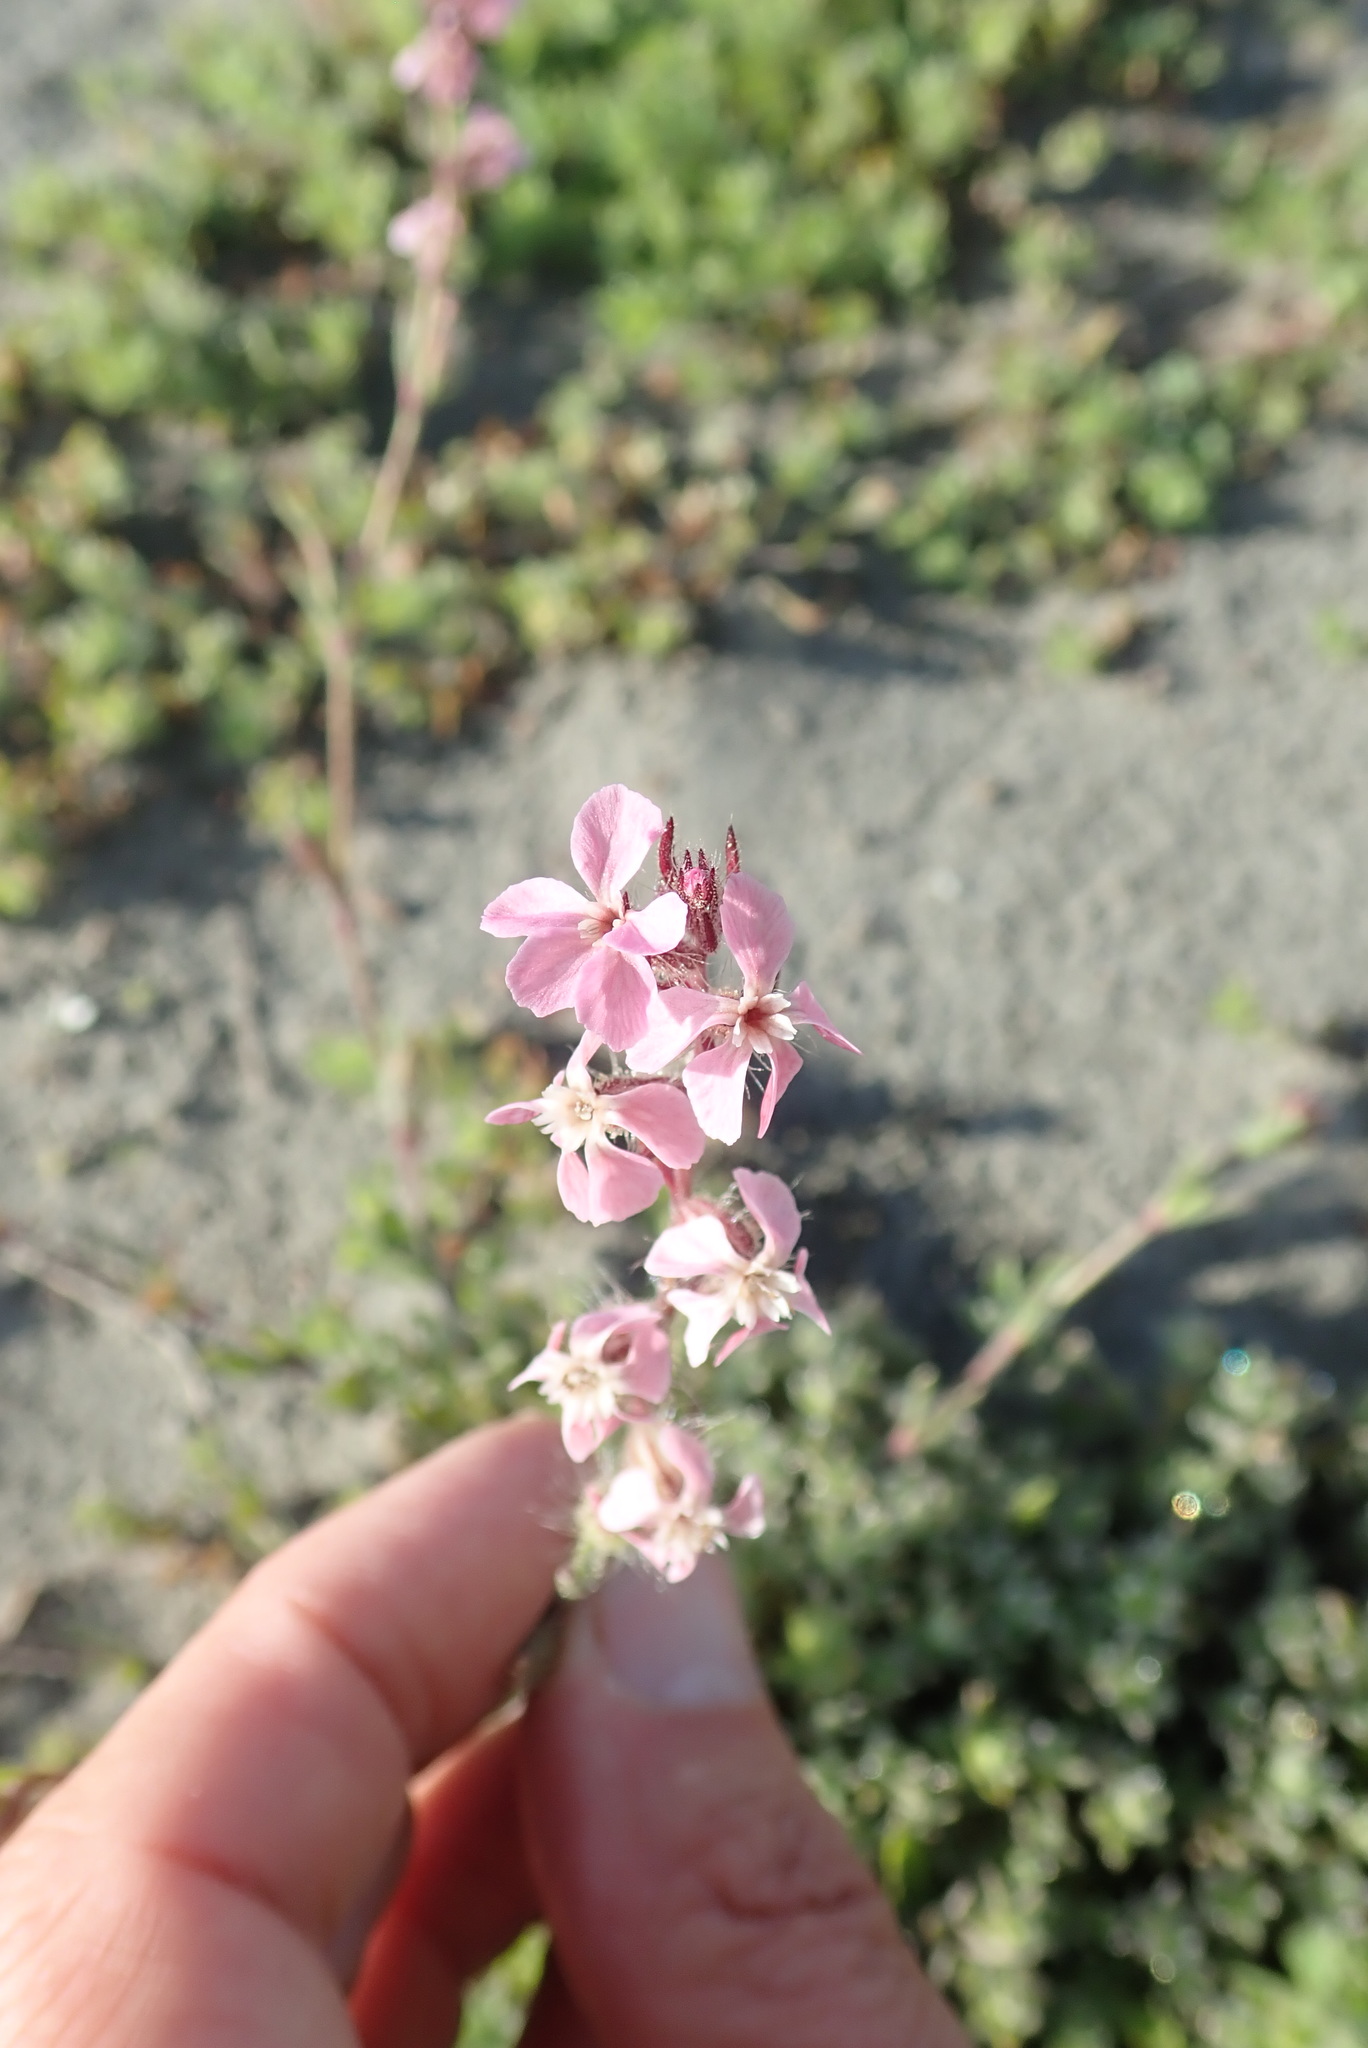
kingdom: Plantae
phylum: Tracheophyta
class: Magnoliopsida
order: Caryophyllales
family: Caryophyllaceae
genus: Silene
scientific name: Silene gallica
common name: Small-flowered catchfly
